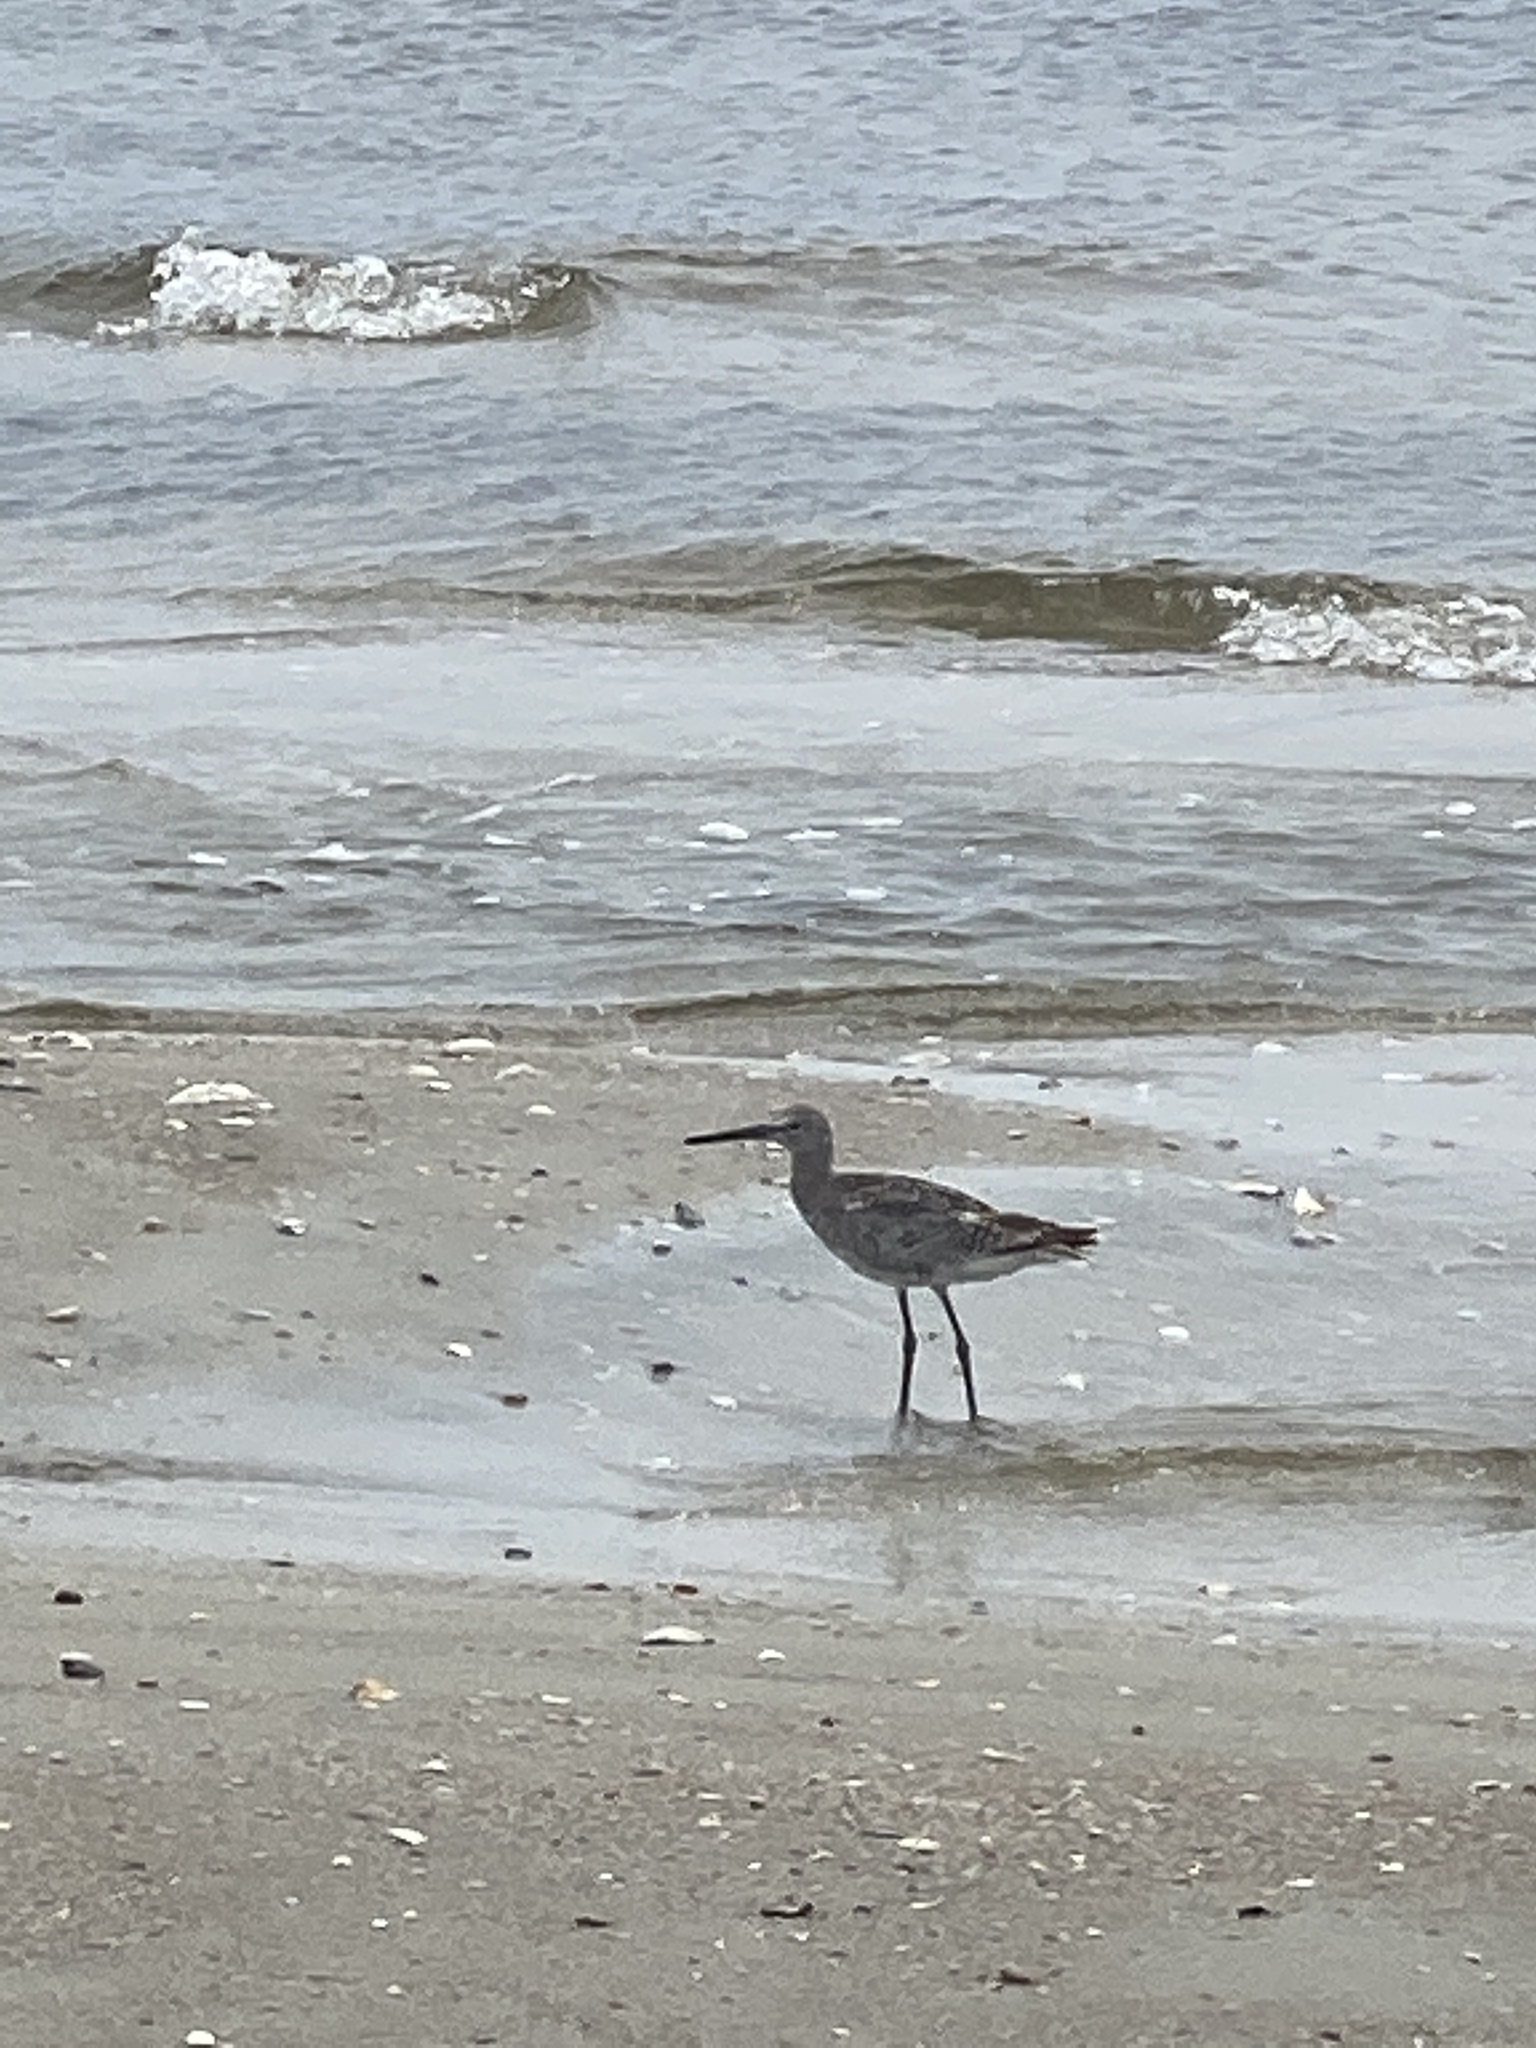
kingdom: Animalia
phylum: Chordata
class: Aves
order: Charadriiformes
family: Scolopacidae
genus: Tringa
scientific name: Tringa semipalmata
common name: Willet
